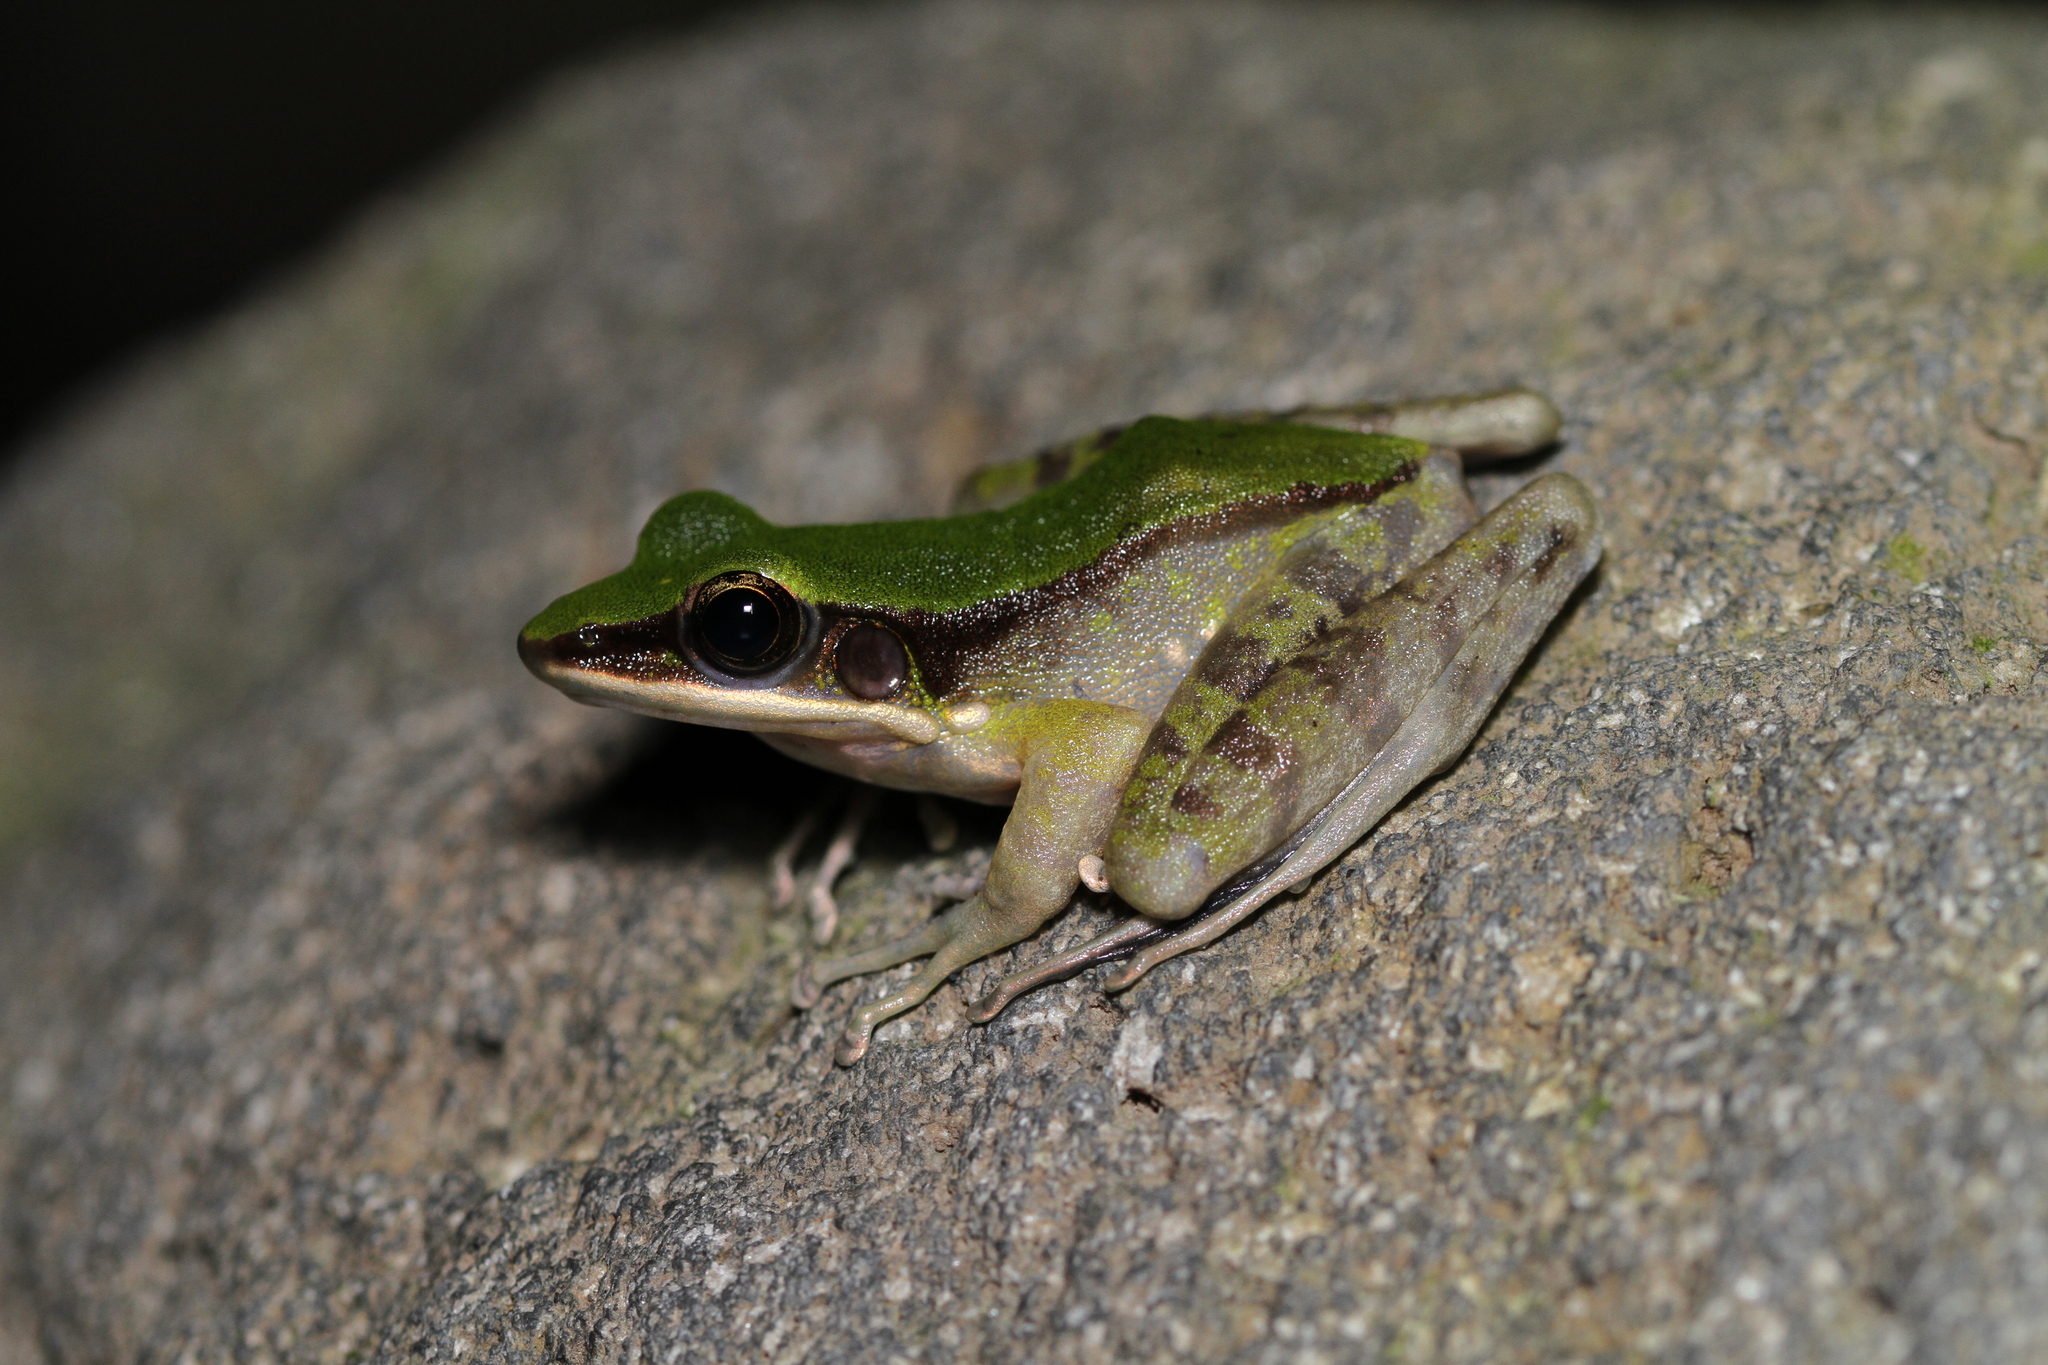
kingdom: Animalia
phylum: Chordata
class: Amphibia
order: Anura
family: Ranidae
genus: Odorrana
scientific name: Odorrana hosii
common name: Green tree frog
